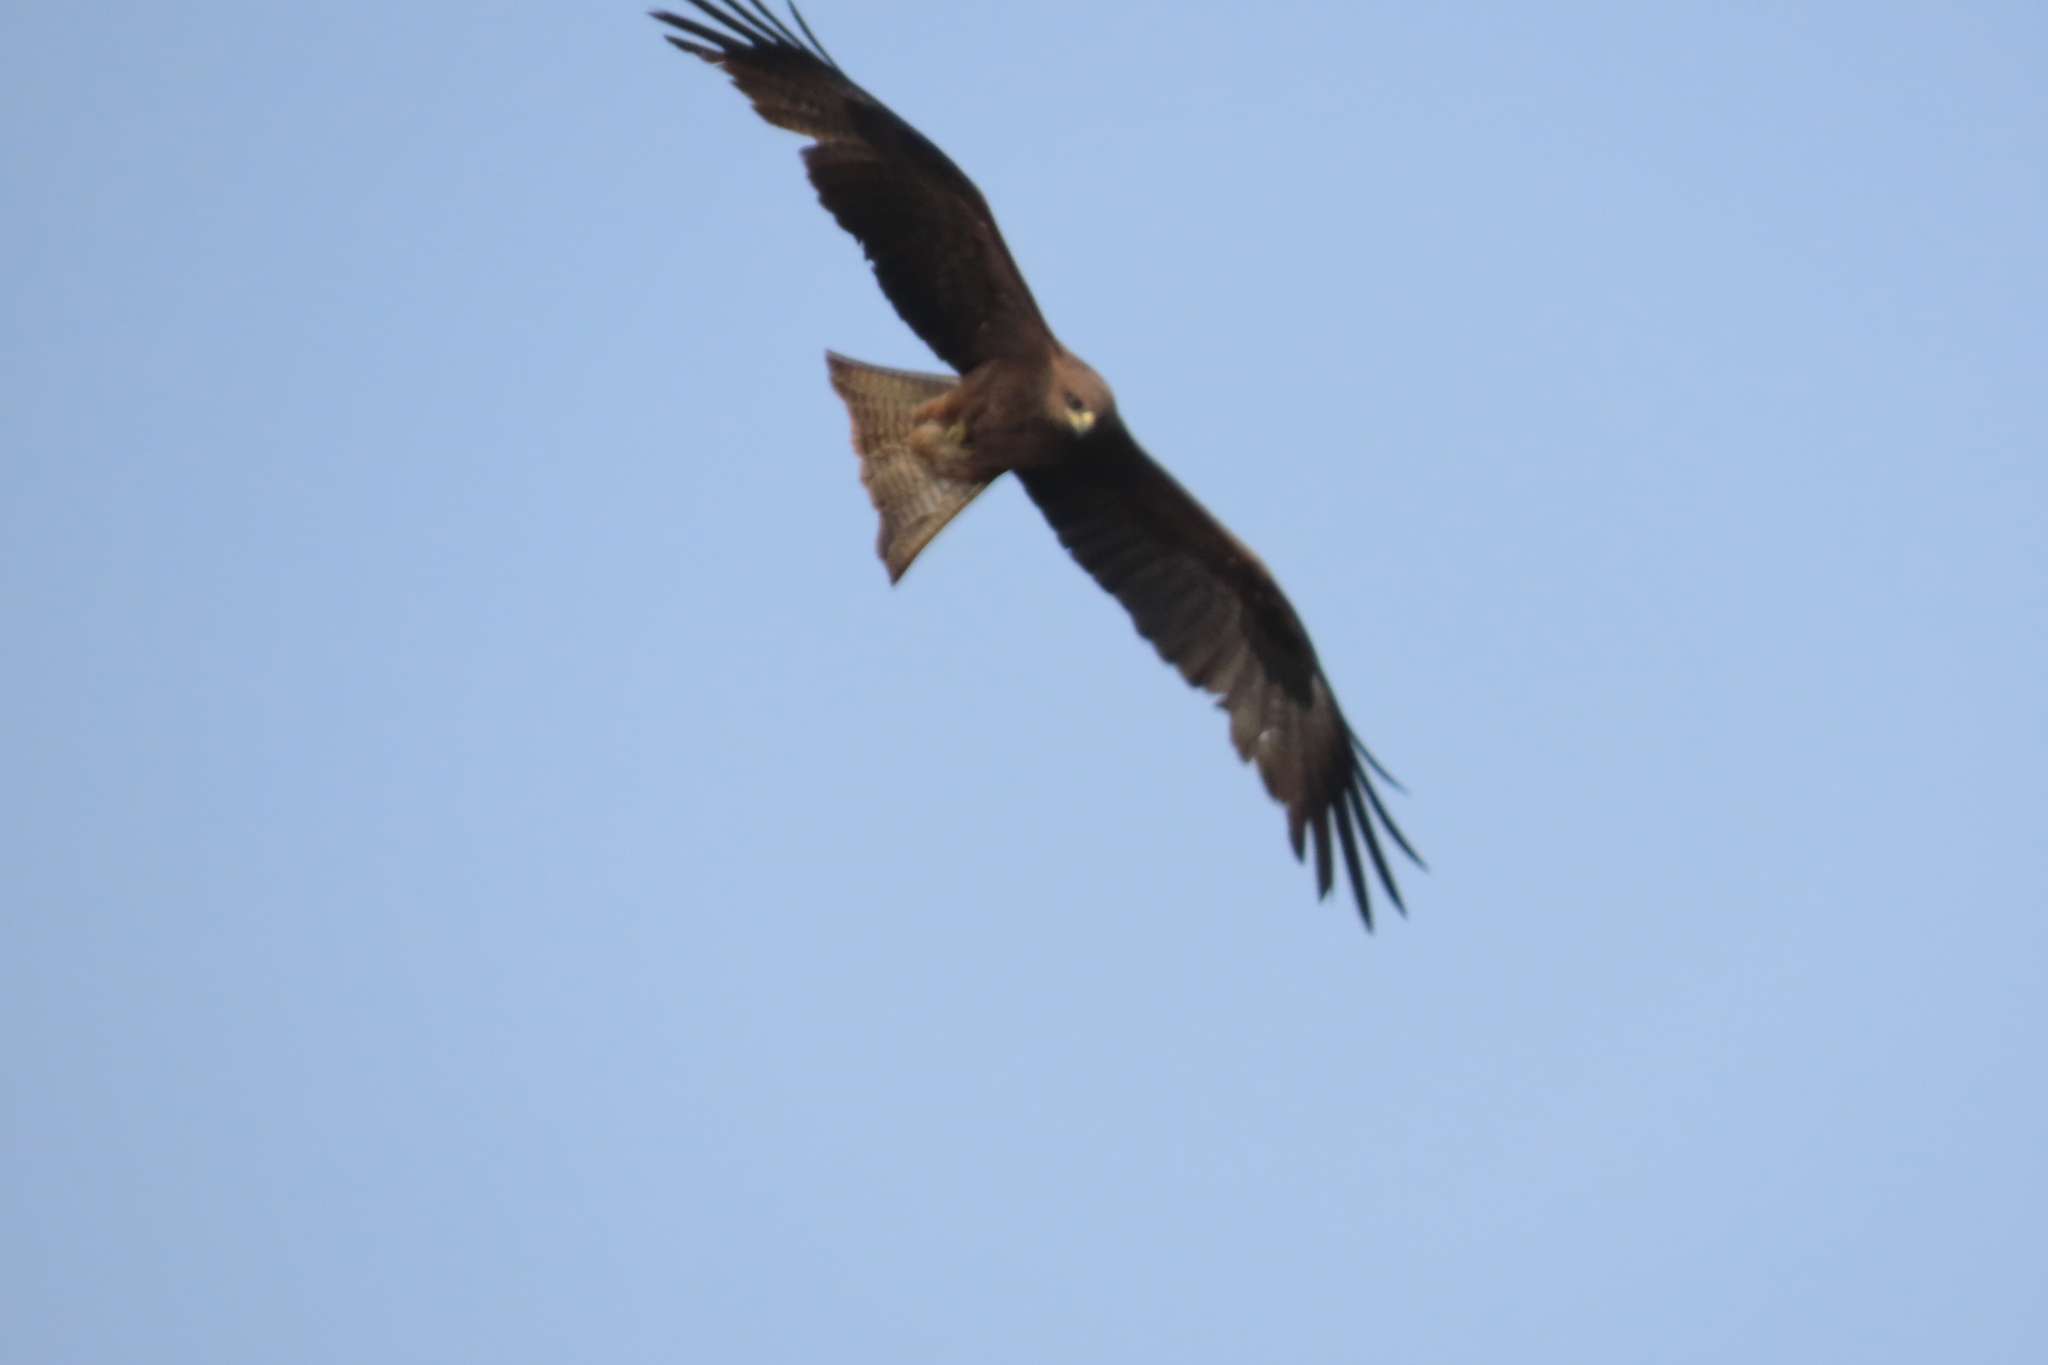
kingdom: Animalia
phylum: Chordata
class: Aves
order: Accipitriformes
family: Accipitridae
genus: Milvus
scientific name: Milvus migrans
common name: Black kite
